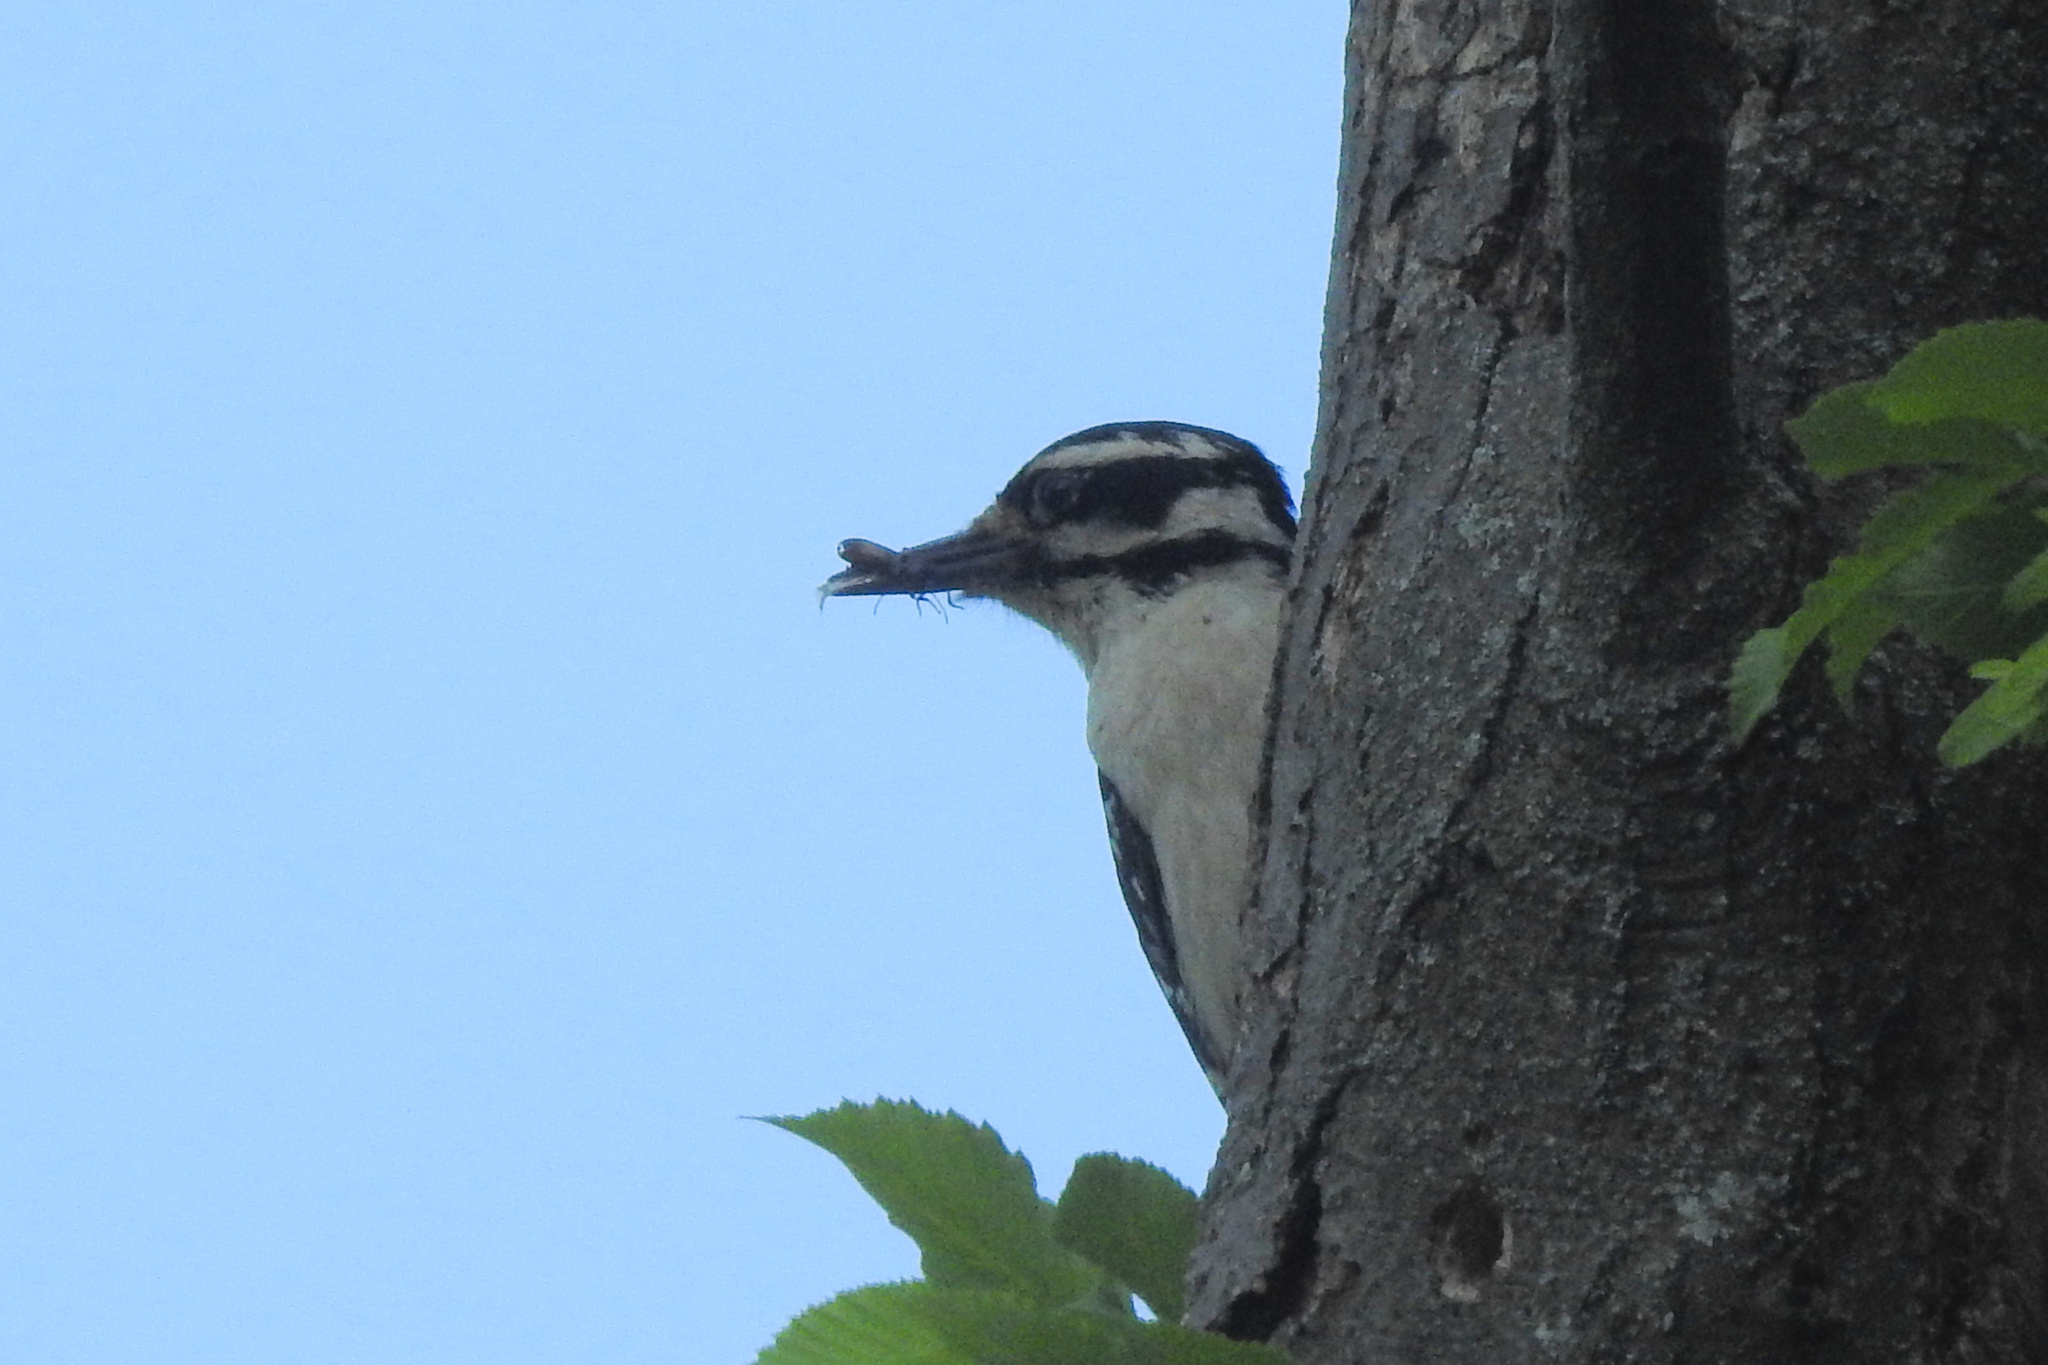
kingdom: Animalia
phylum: Chordata
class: Aves
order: Piciformes
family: Picidae
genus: Leuconotopicus
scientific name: Leuconotopicus villosus
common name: Hairy woodpecker
